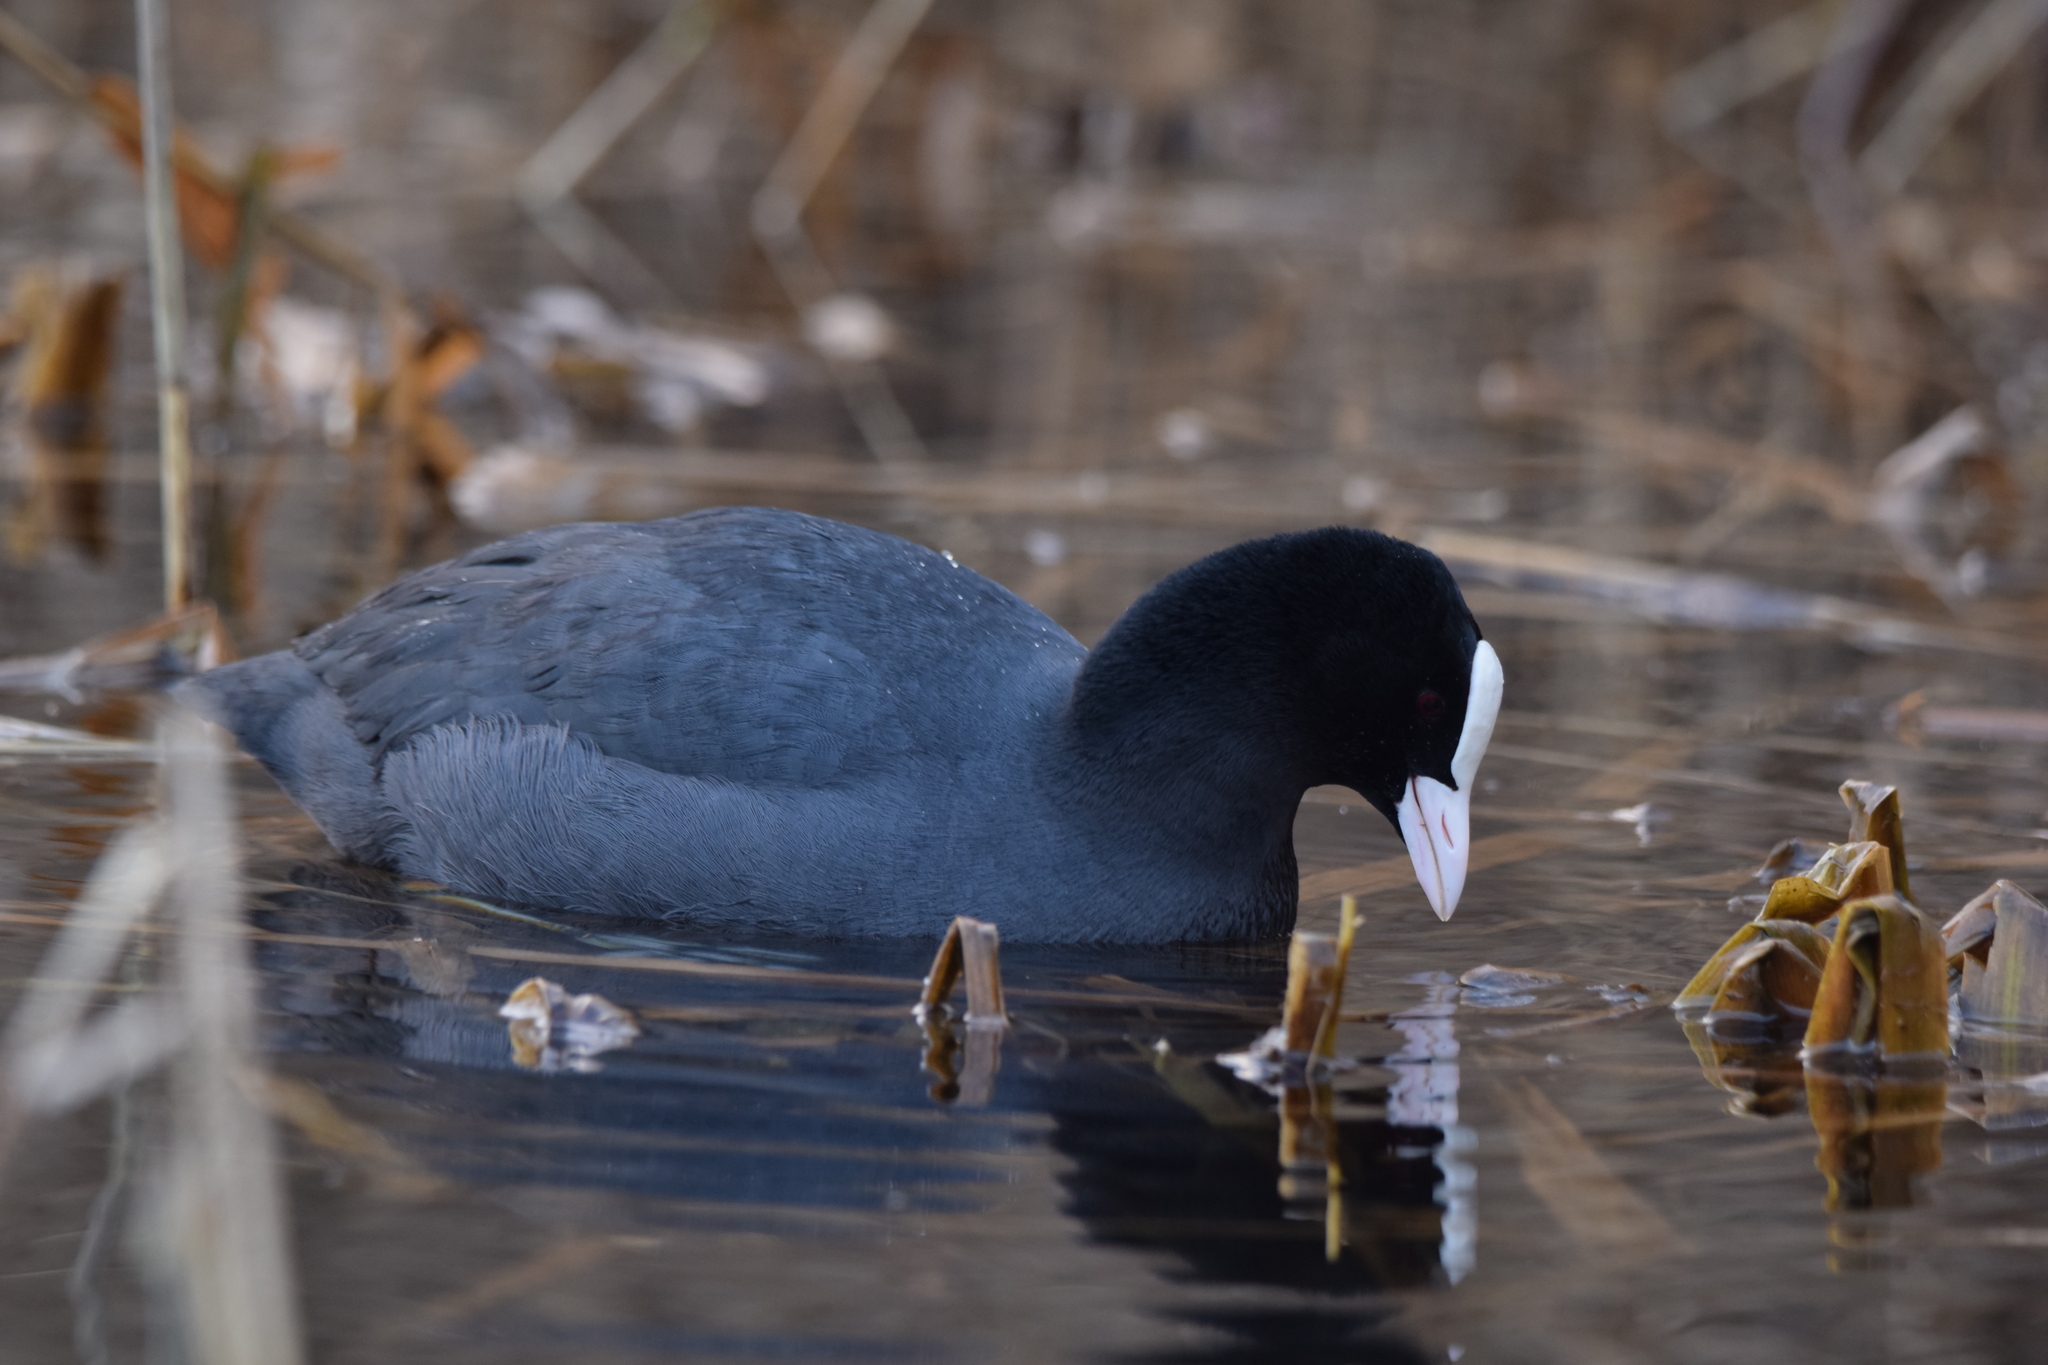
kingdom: Animalia
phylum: Chordata
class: Aves
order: Gruiformes
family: Rallidae
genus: Fulica
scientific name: Fulica atra
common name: Eurasian coot
